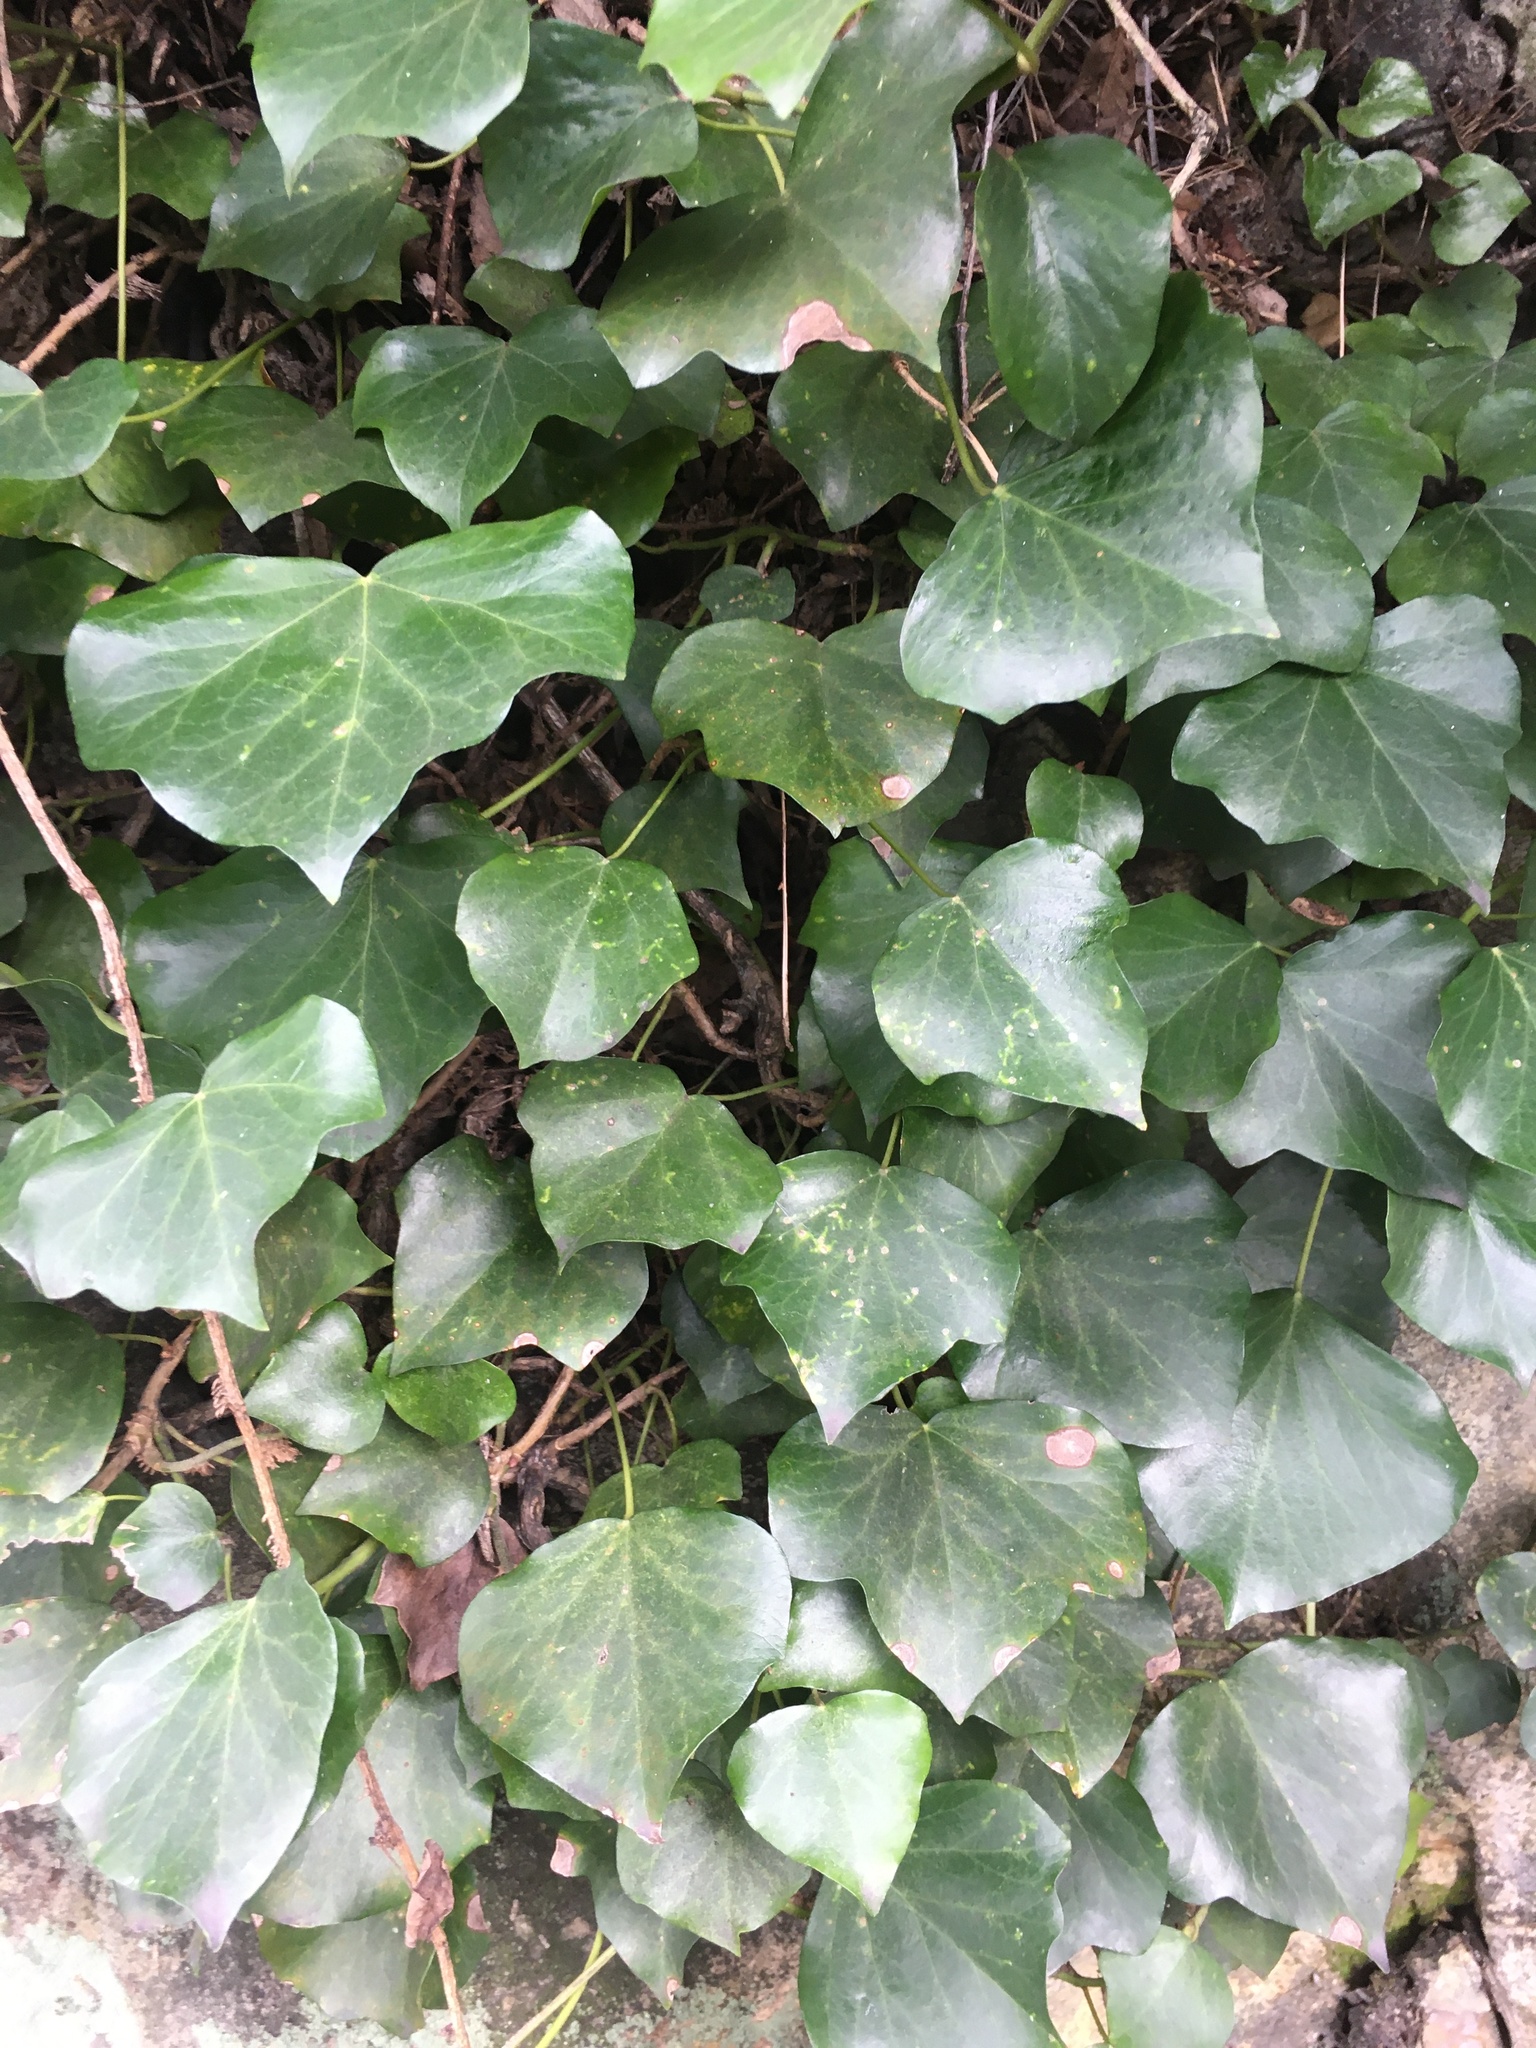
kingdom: Plantae
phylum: Tracheophyta
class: Magnoliopsida
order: Apiales
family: Araliaceae
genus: Hedera
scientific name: Hedera helix
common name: Ivy
